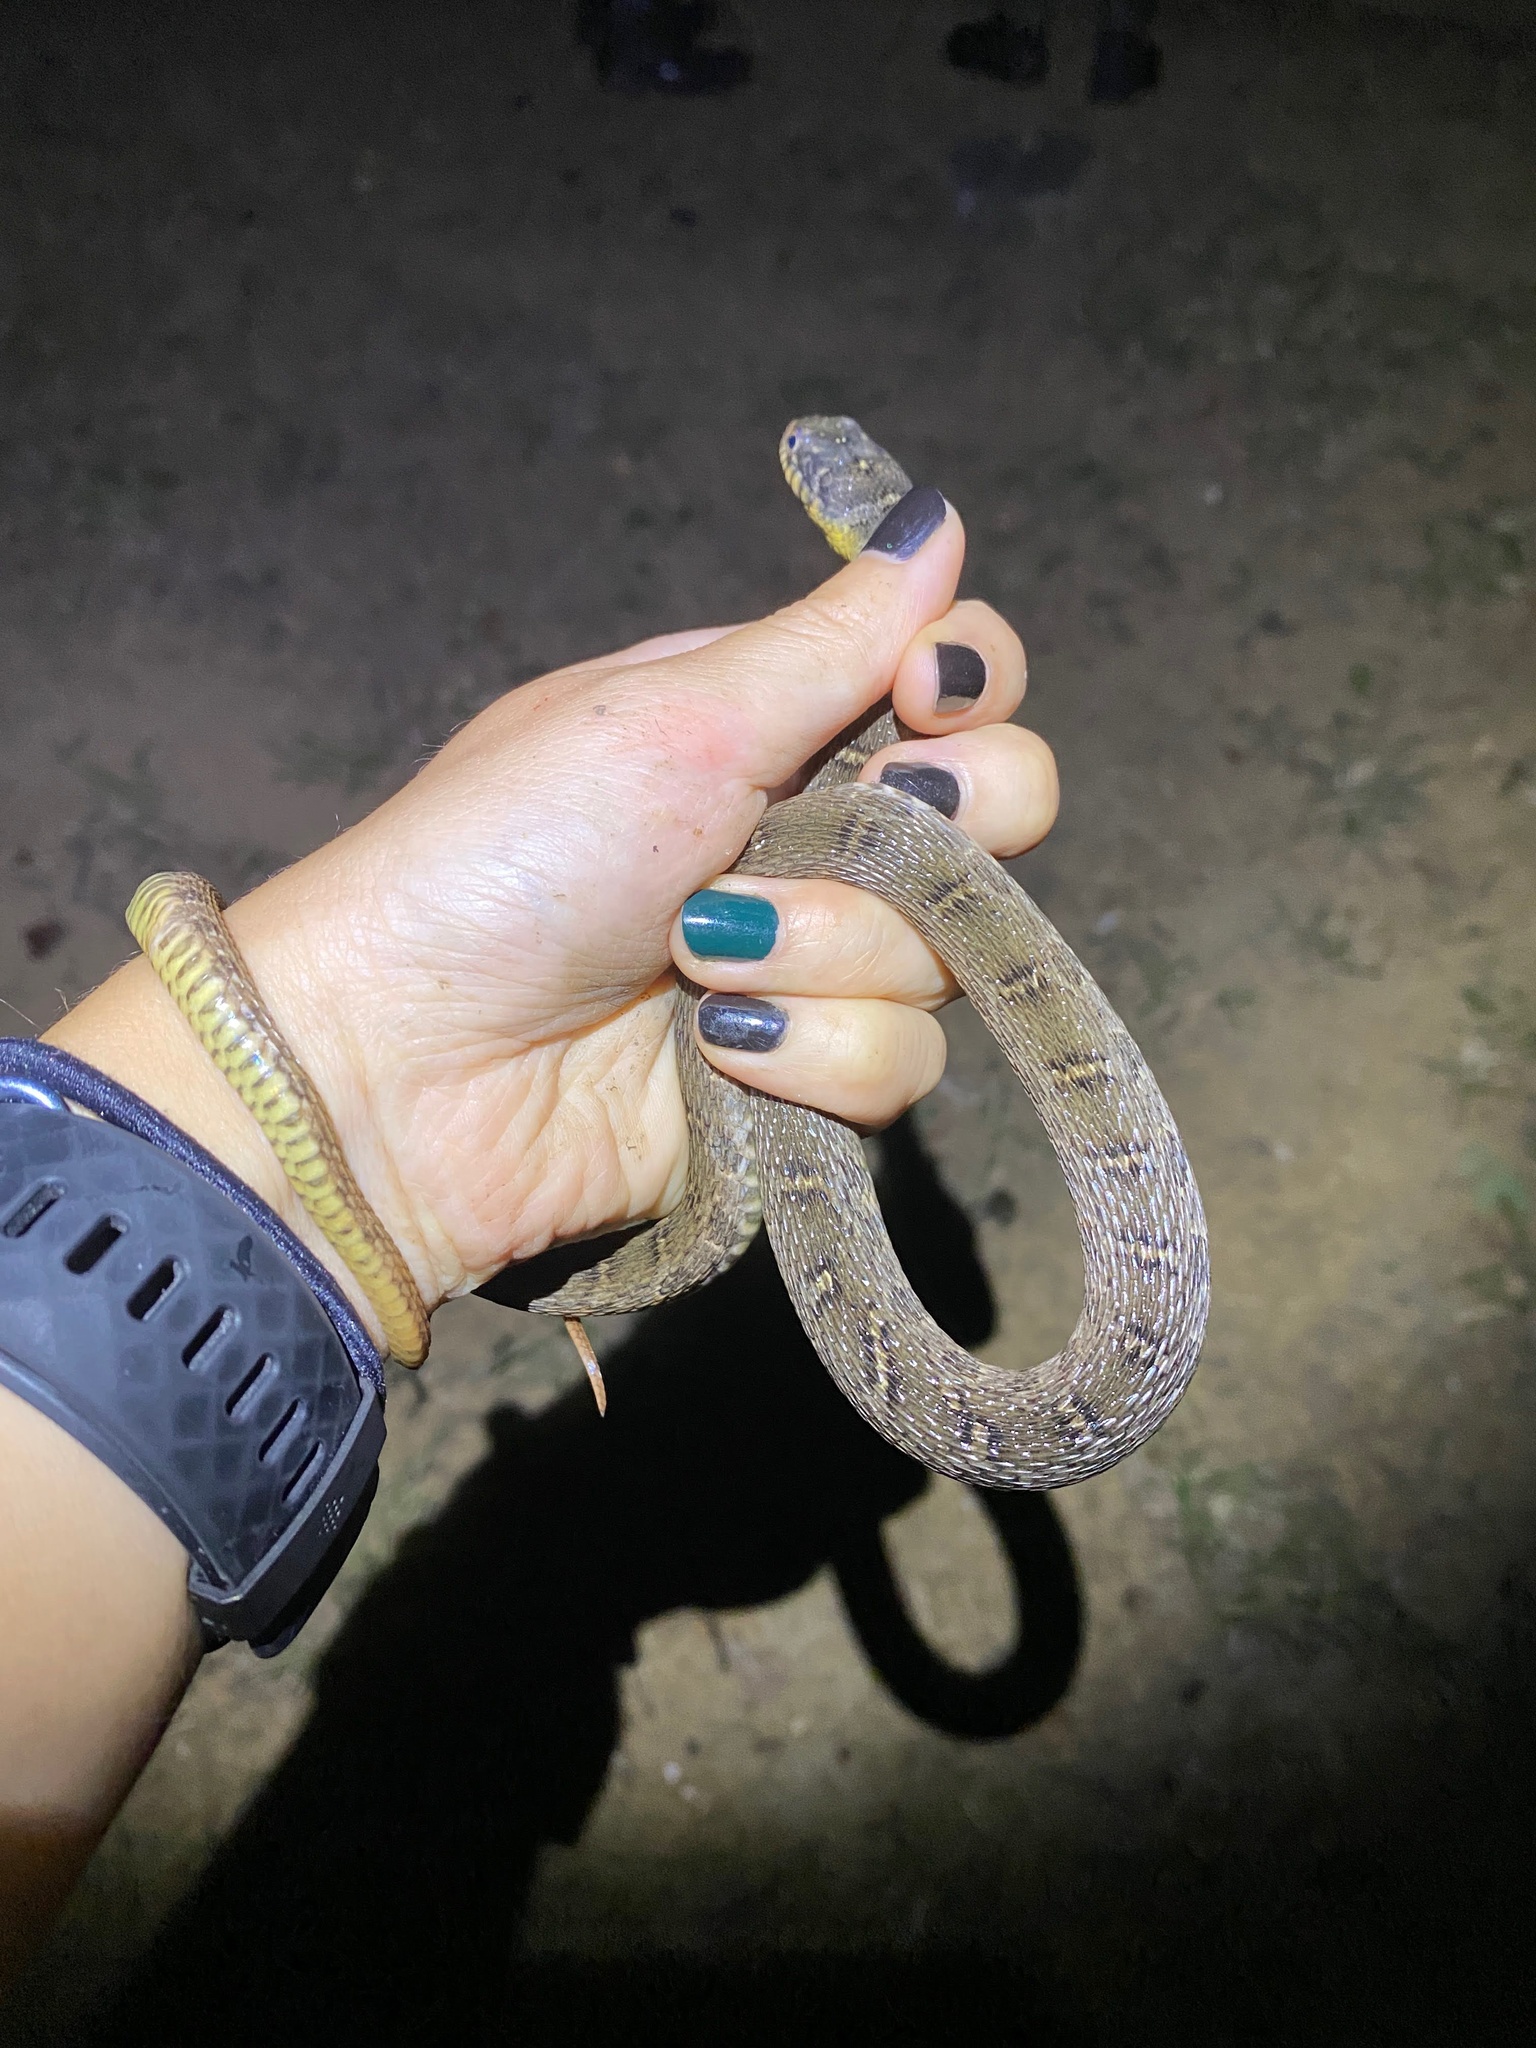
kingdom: Animalia
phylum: Chordata
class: Squamata
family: Colubridae
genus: Nerodia
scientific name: Nerodia erythrogaster
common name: Plainbelly water snake
